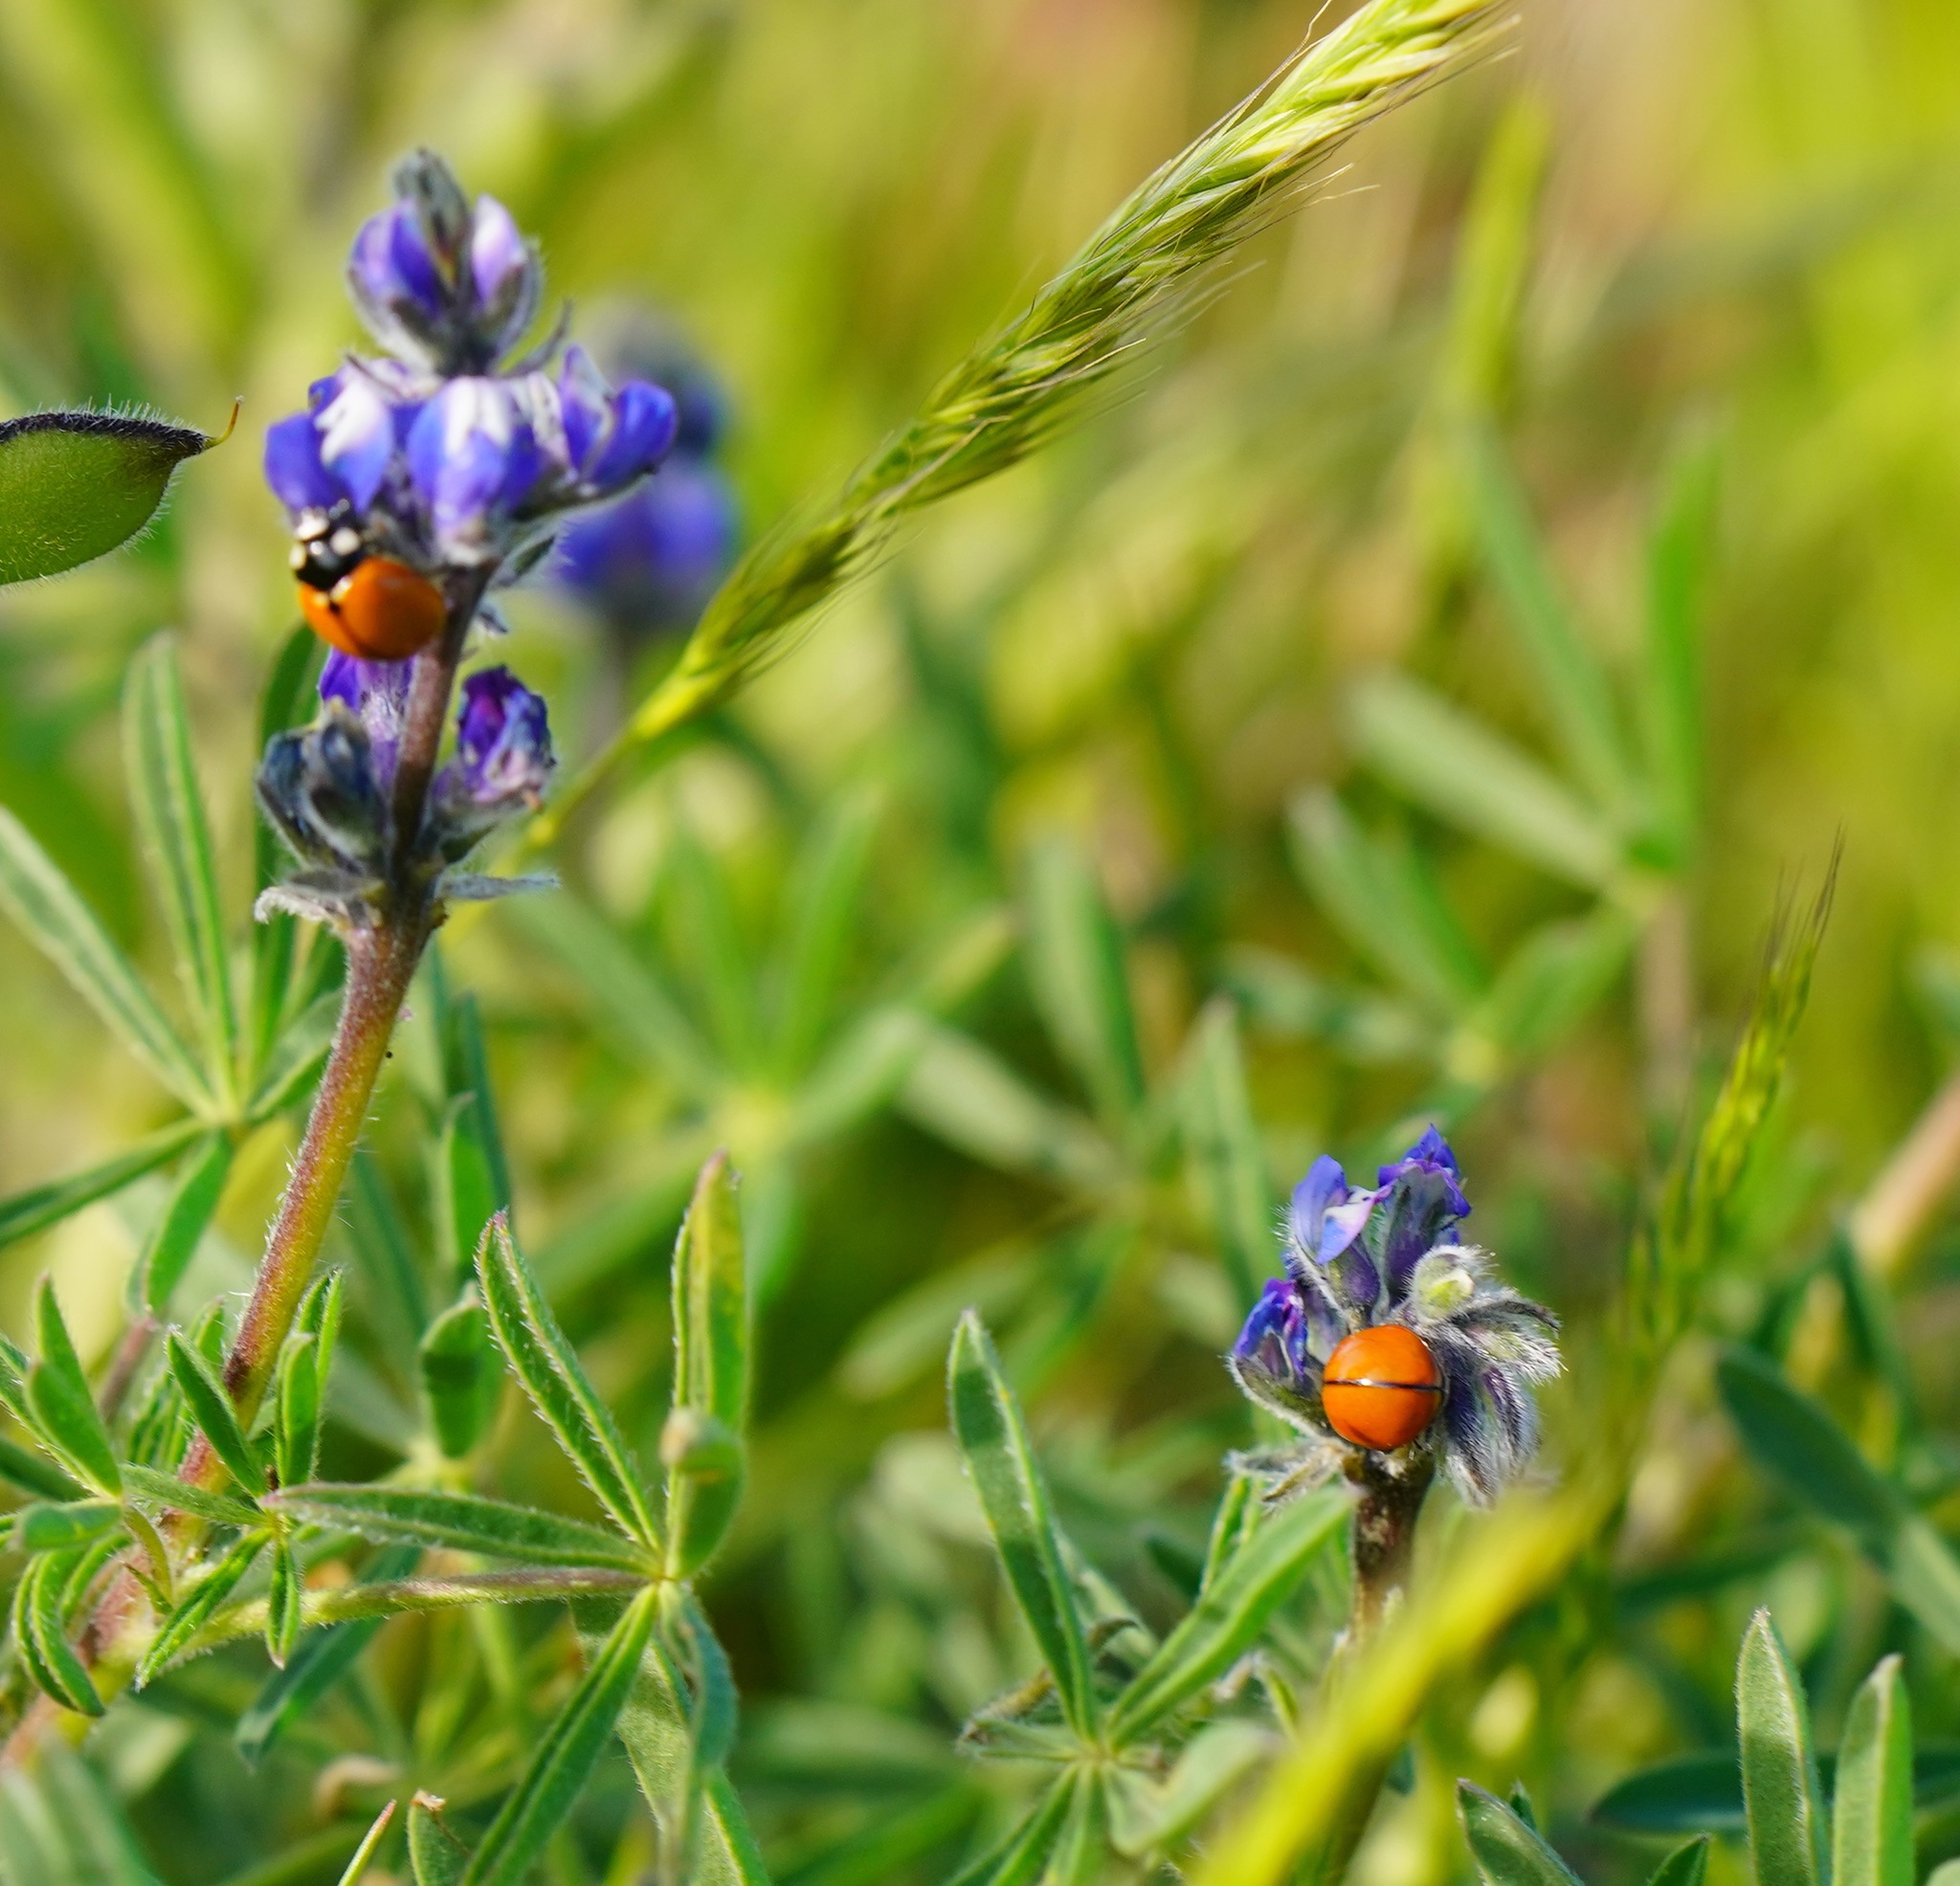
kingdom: Animalia
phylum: Arthropoda
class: Insecta
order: Coleoptera
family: Coccinellidae
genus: Coccinella
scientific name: Coccinella californica
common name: Lady beetle
